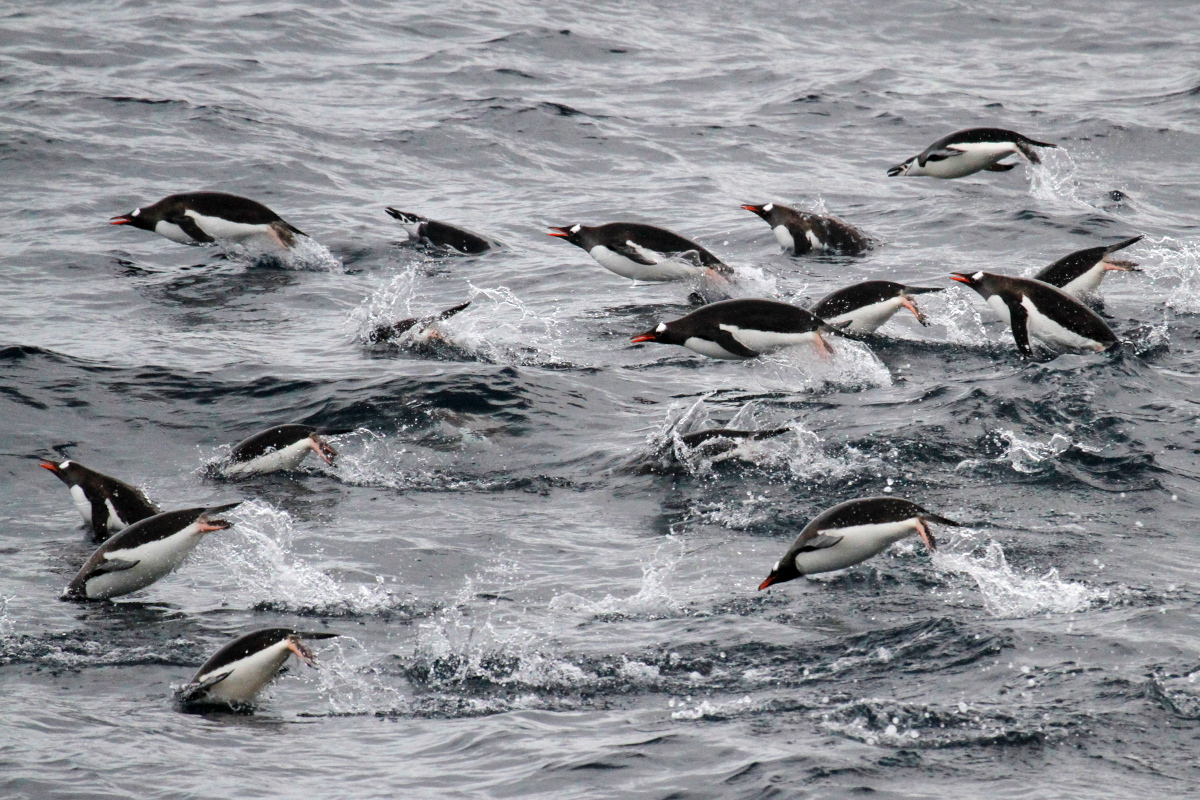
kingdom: Animalia
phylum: Chordata
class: Aves
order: Sphenisciformes
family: Spheniscidae
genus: Pygoscelis
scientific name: Pygoscelis antarcticus
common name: Chinstrap penguin
